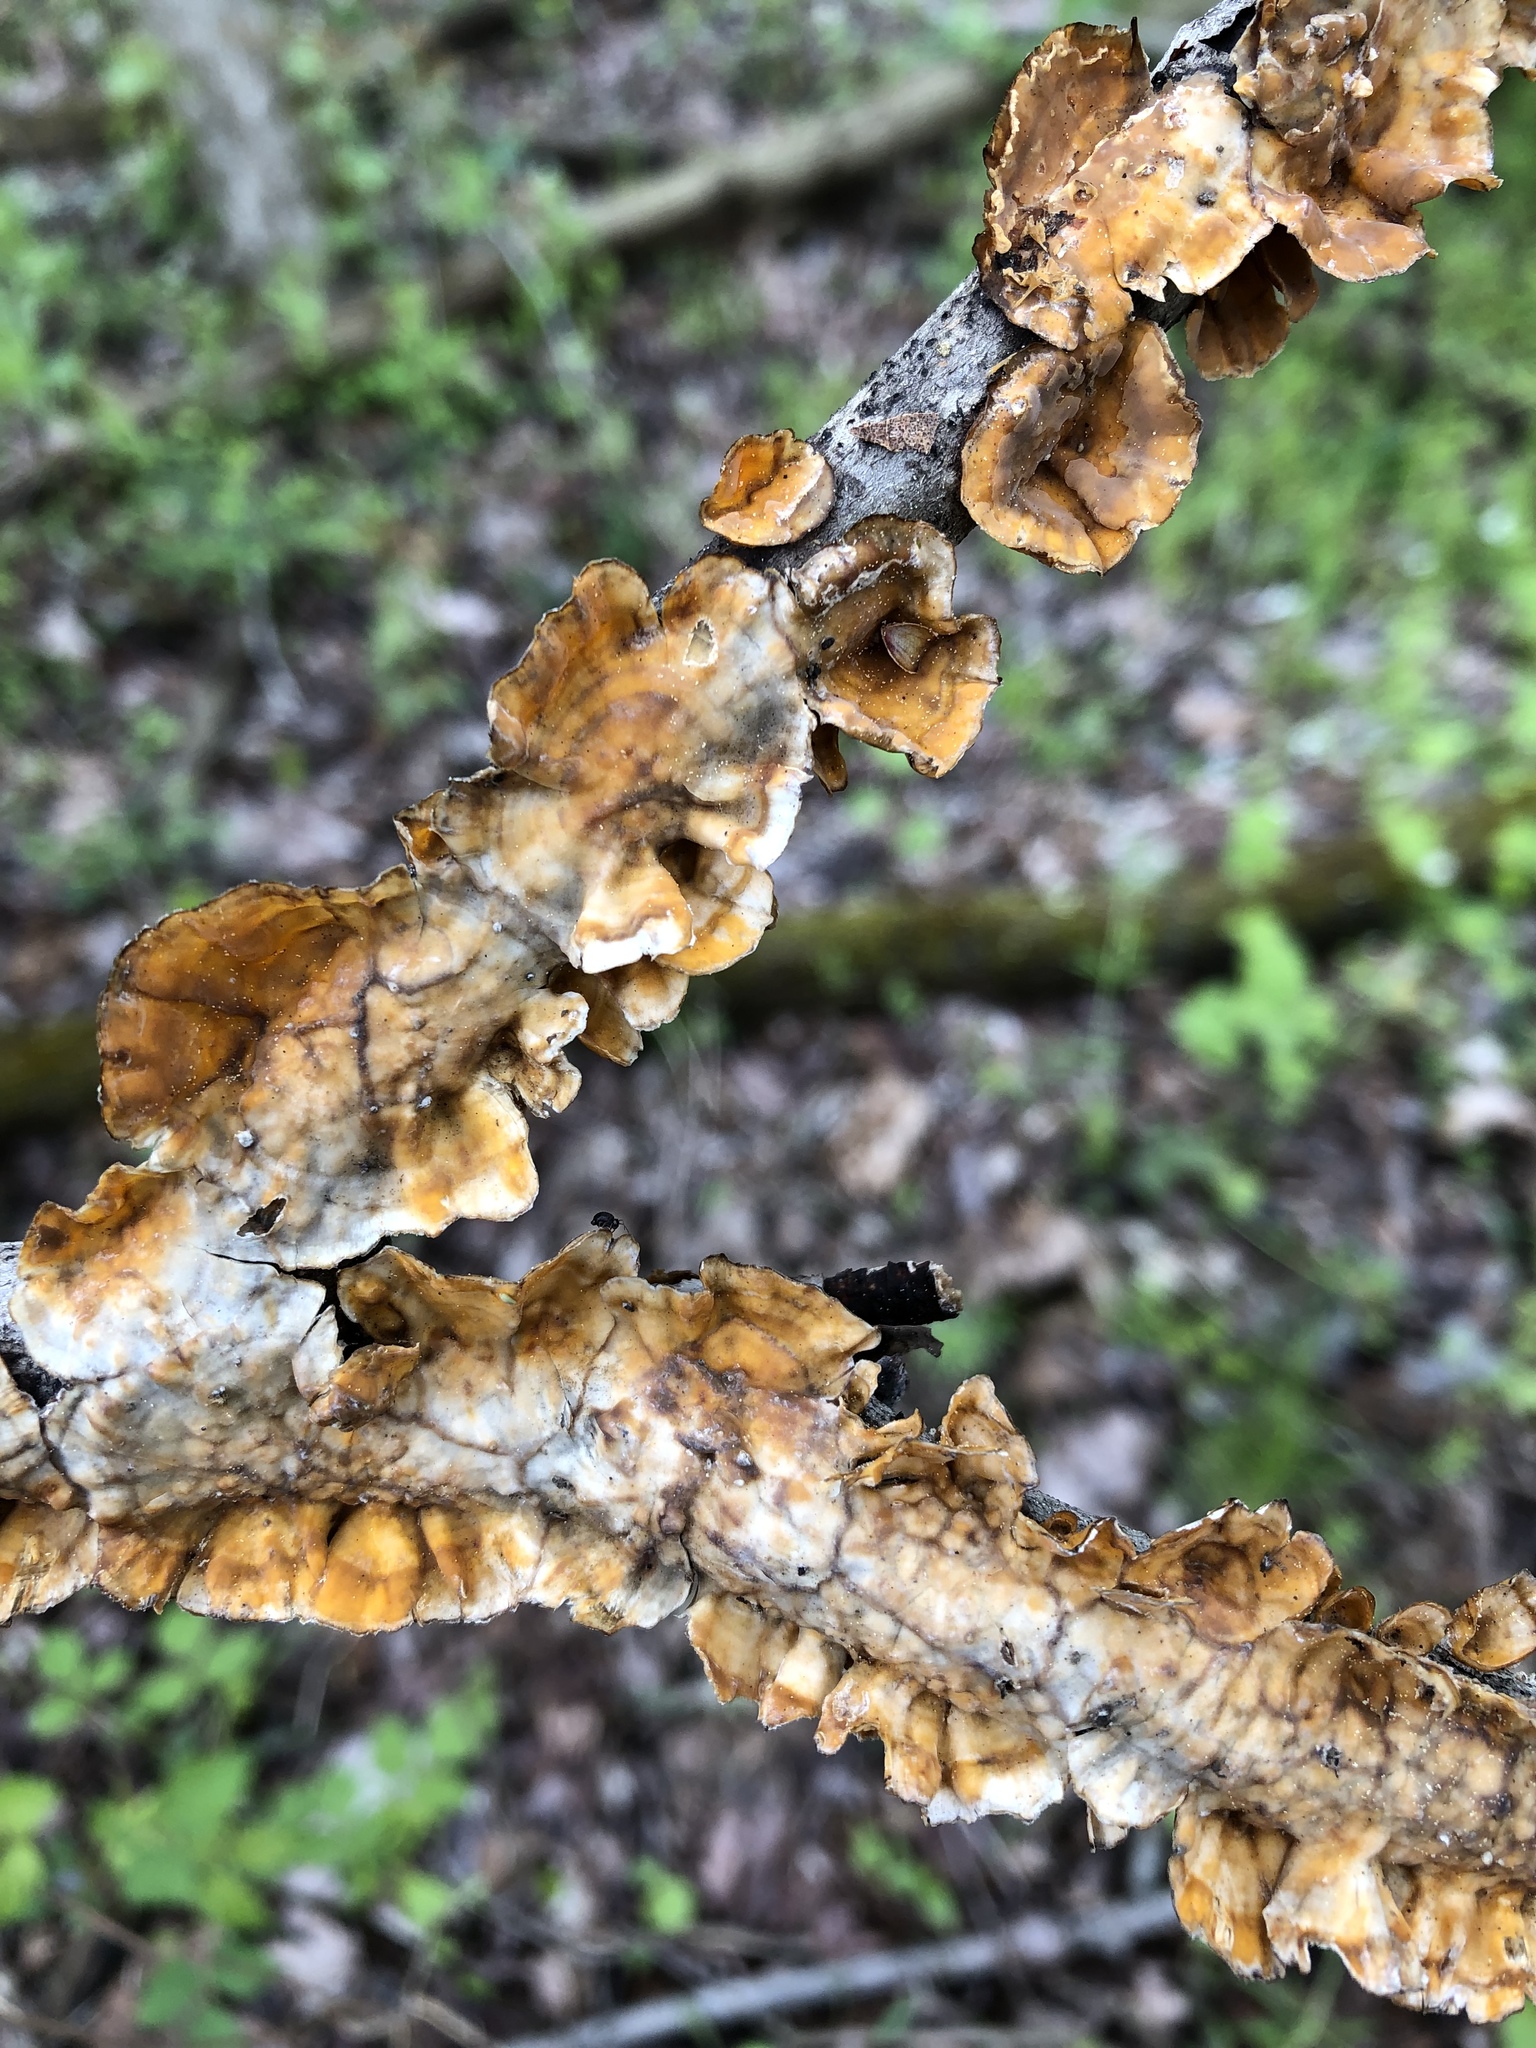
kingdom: Fungi
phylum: Basidiomycota
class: Agaricomycetes
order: Russulales
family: Stereaceae
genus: Stereum
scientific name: Stereum complicatum
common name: Crowded parchment
